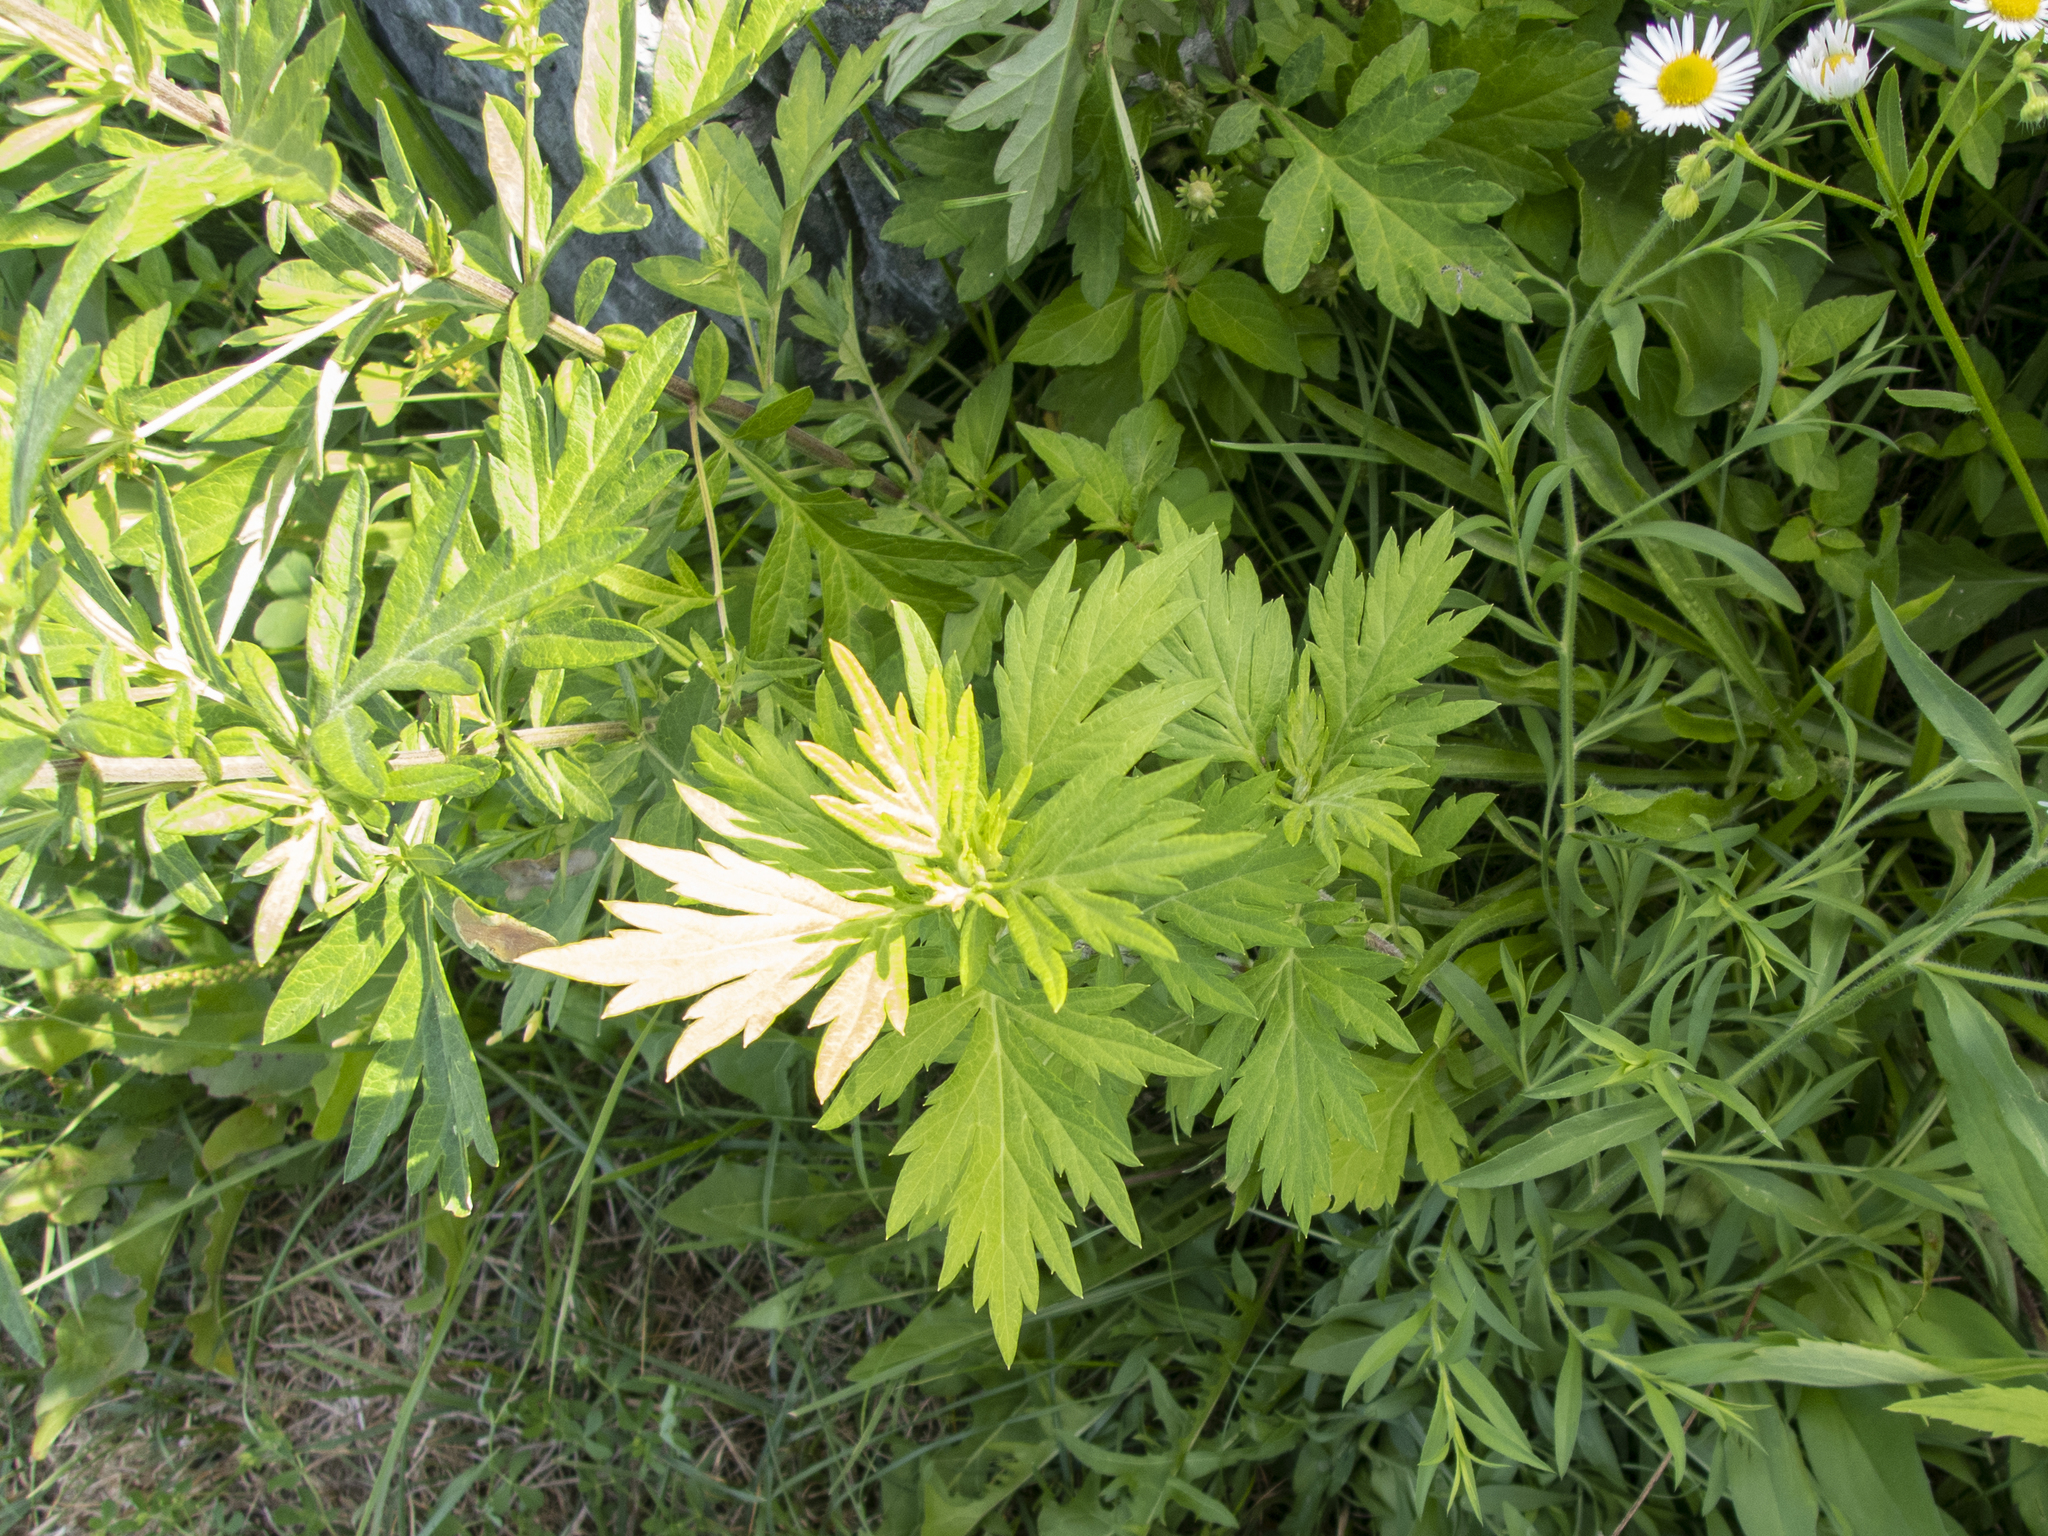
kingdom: Plantae
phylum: Tracheophyta
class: Magnoliopsida
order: Asterales
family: Asteraceae
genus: Artemisia
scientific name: Artemisia vulgaris
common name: Mugwort
